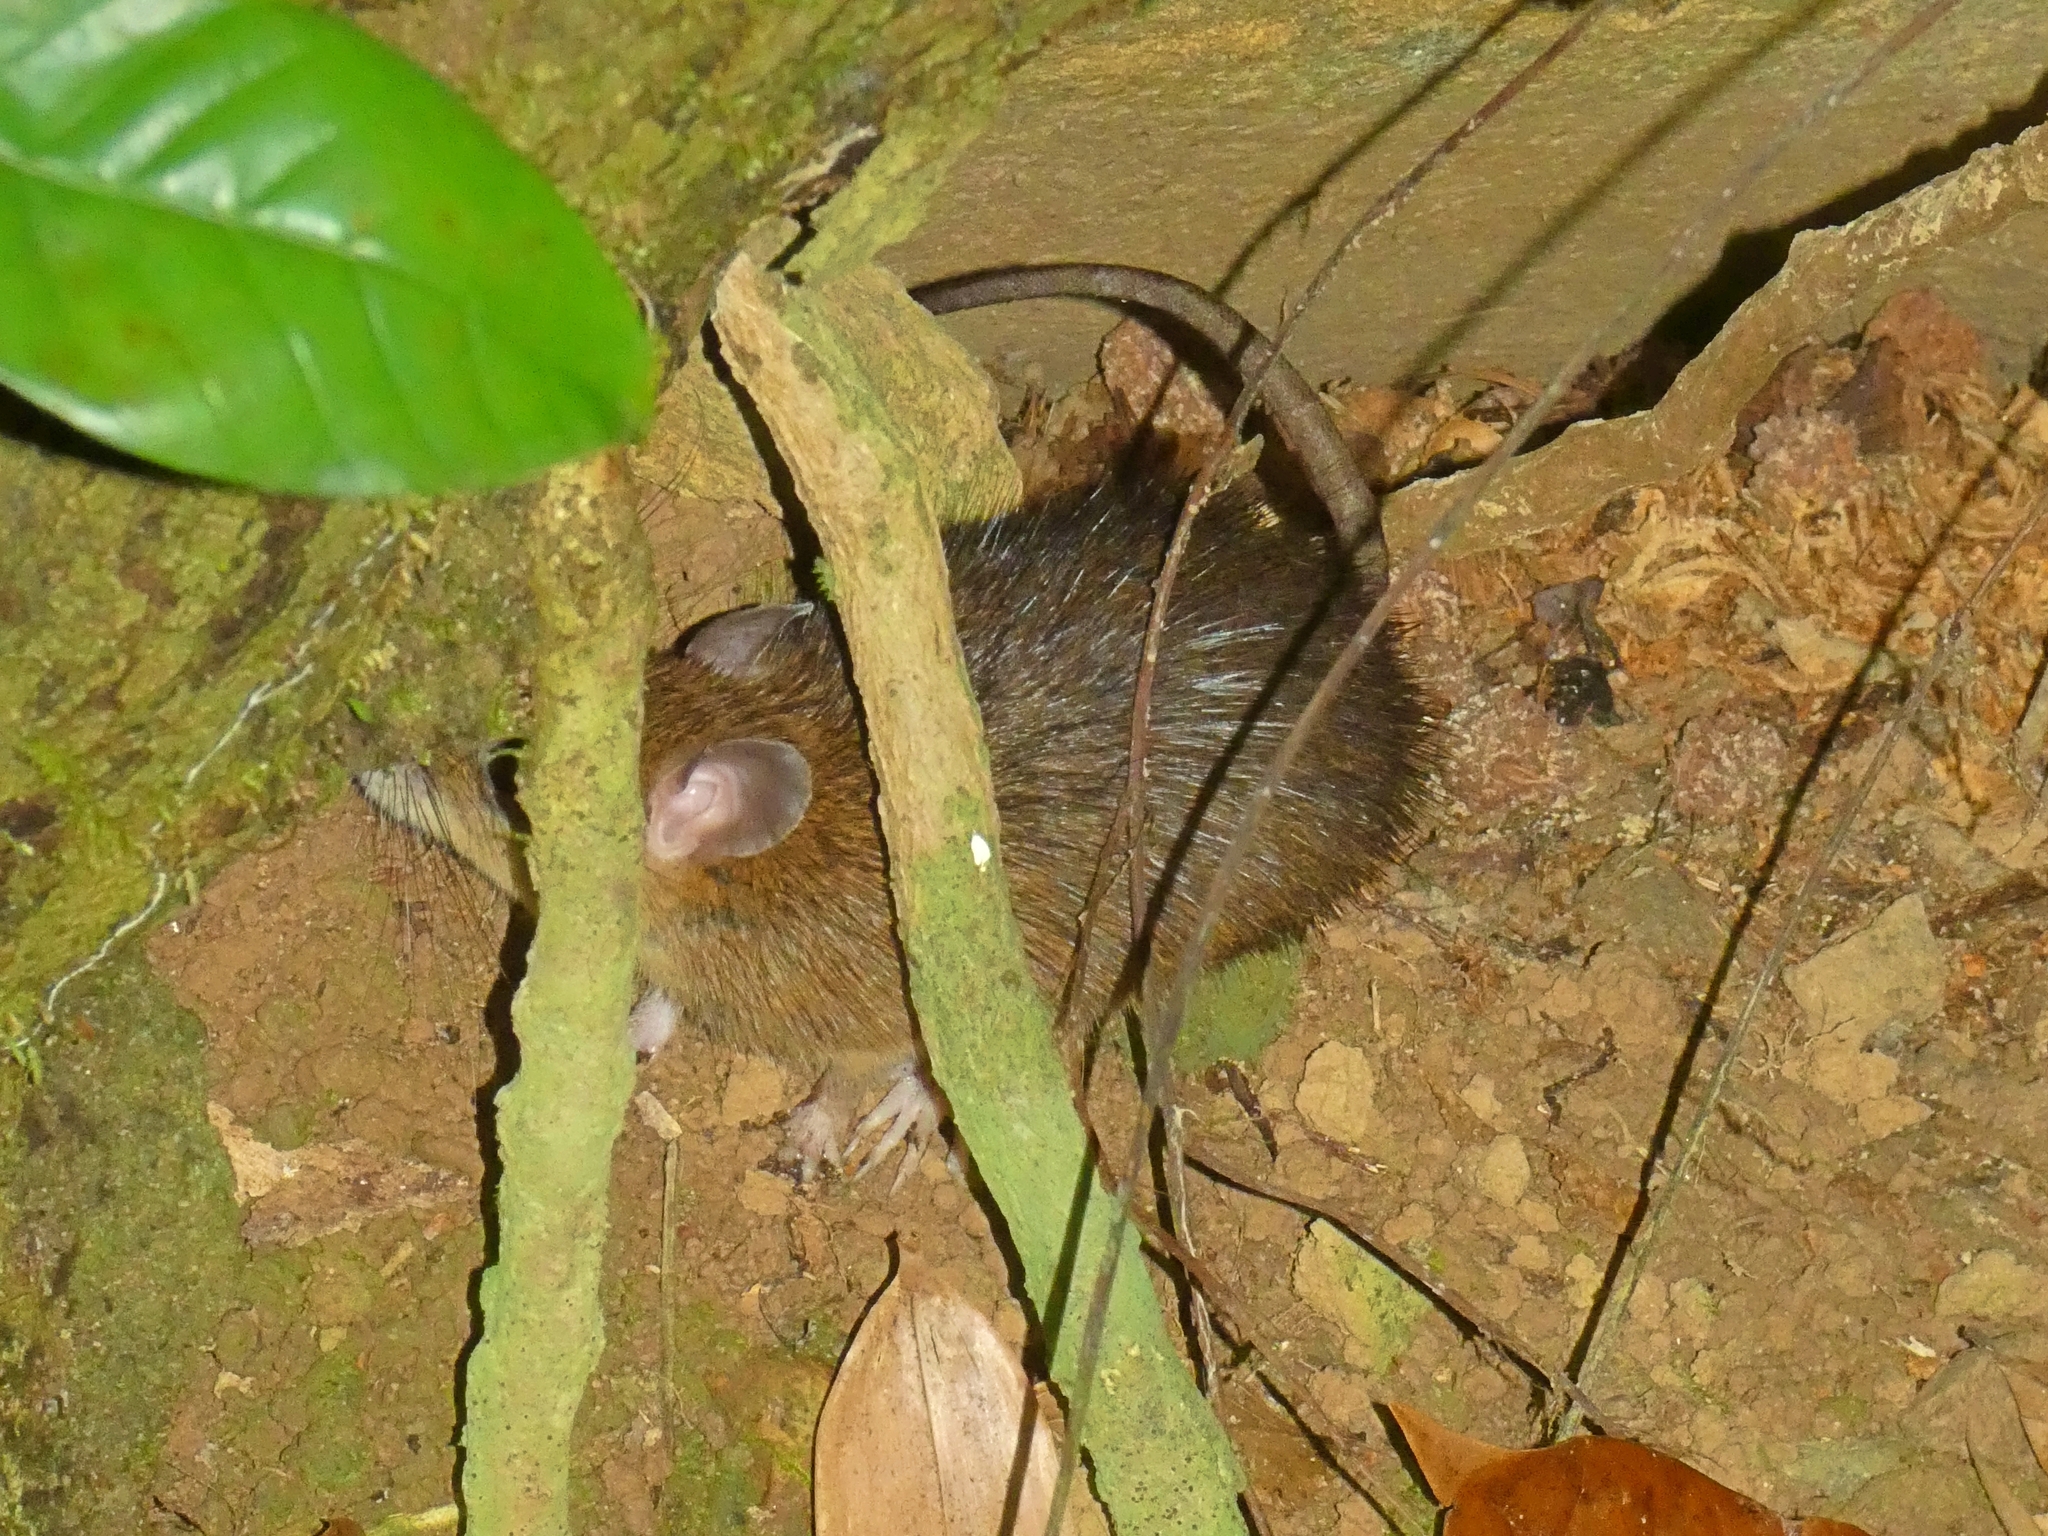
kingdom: Animalia
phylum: Chordata
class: Mammalia
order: Rodentia
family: Muridae
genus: Rattus
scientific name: Rattus fuscipes
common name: Australian bush rat
